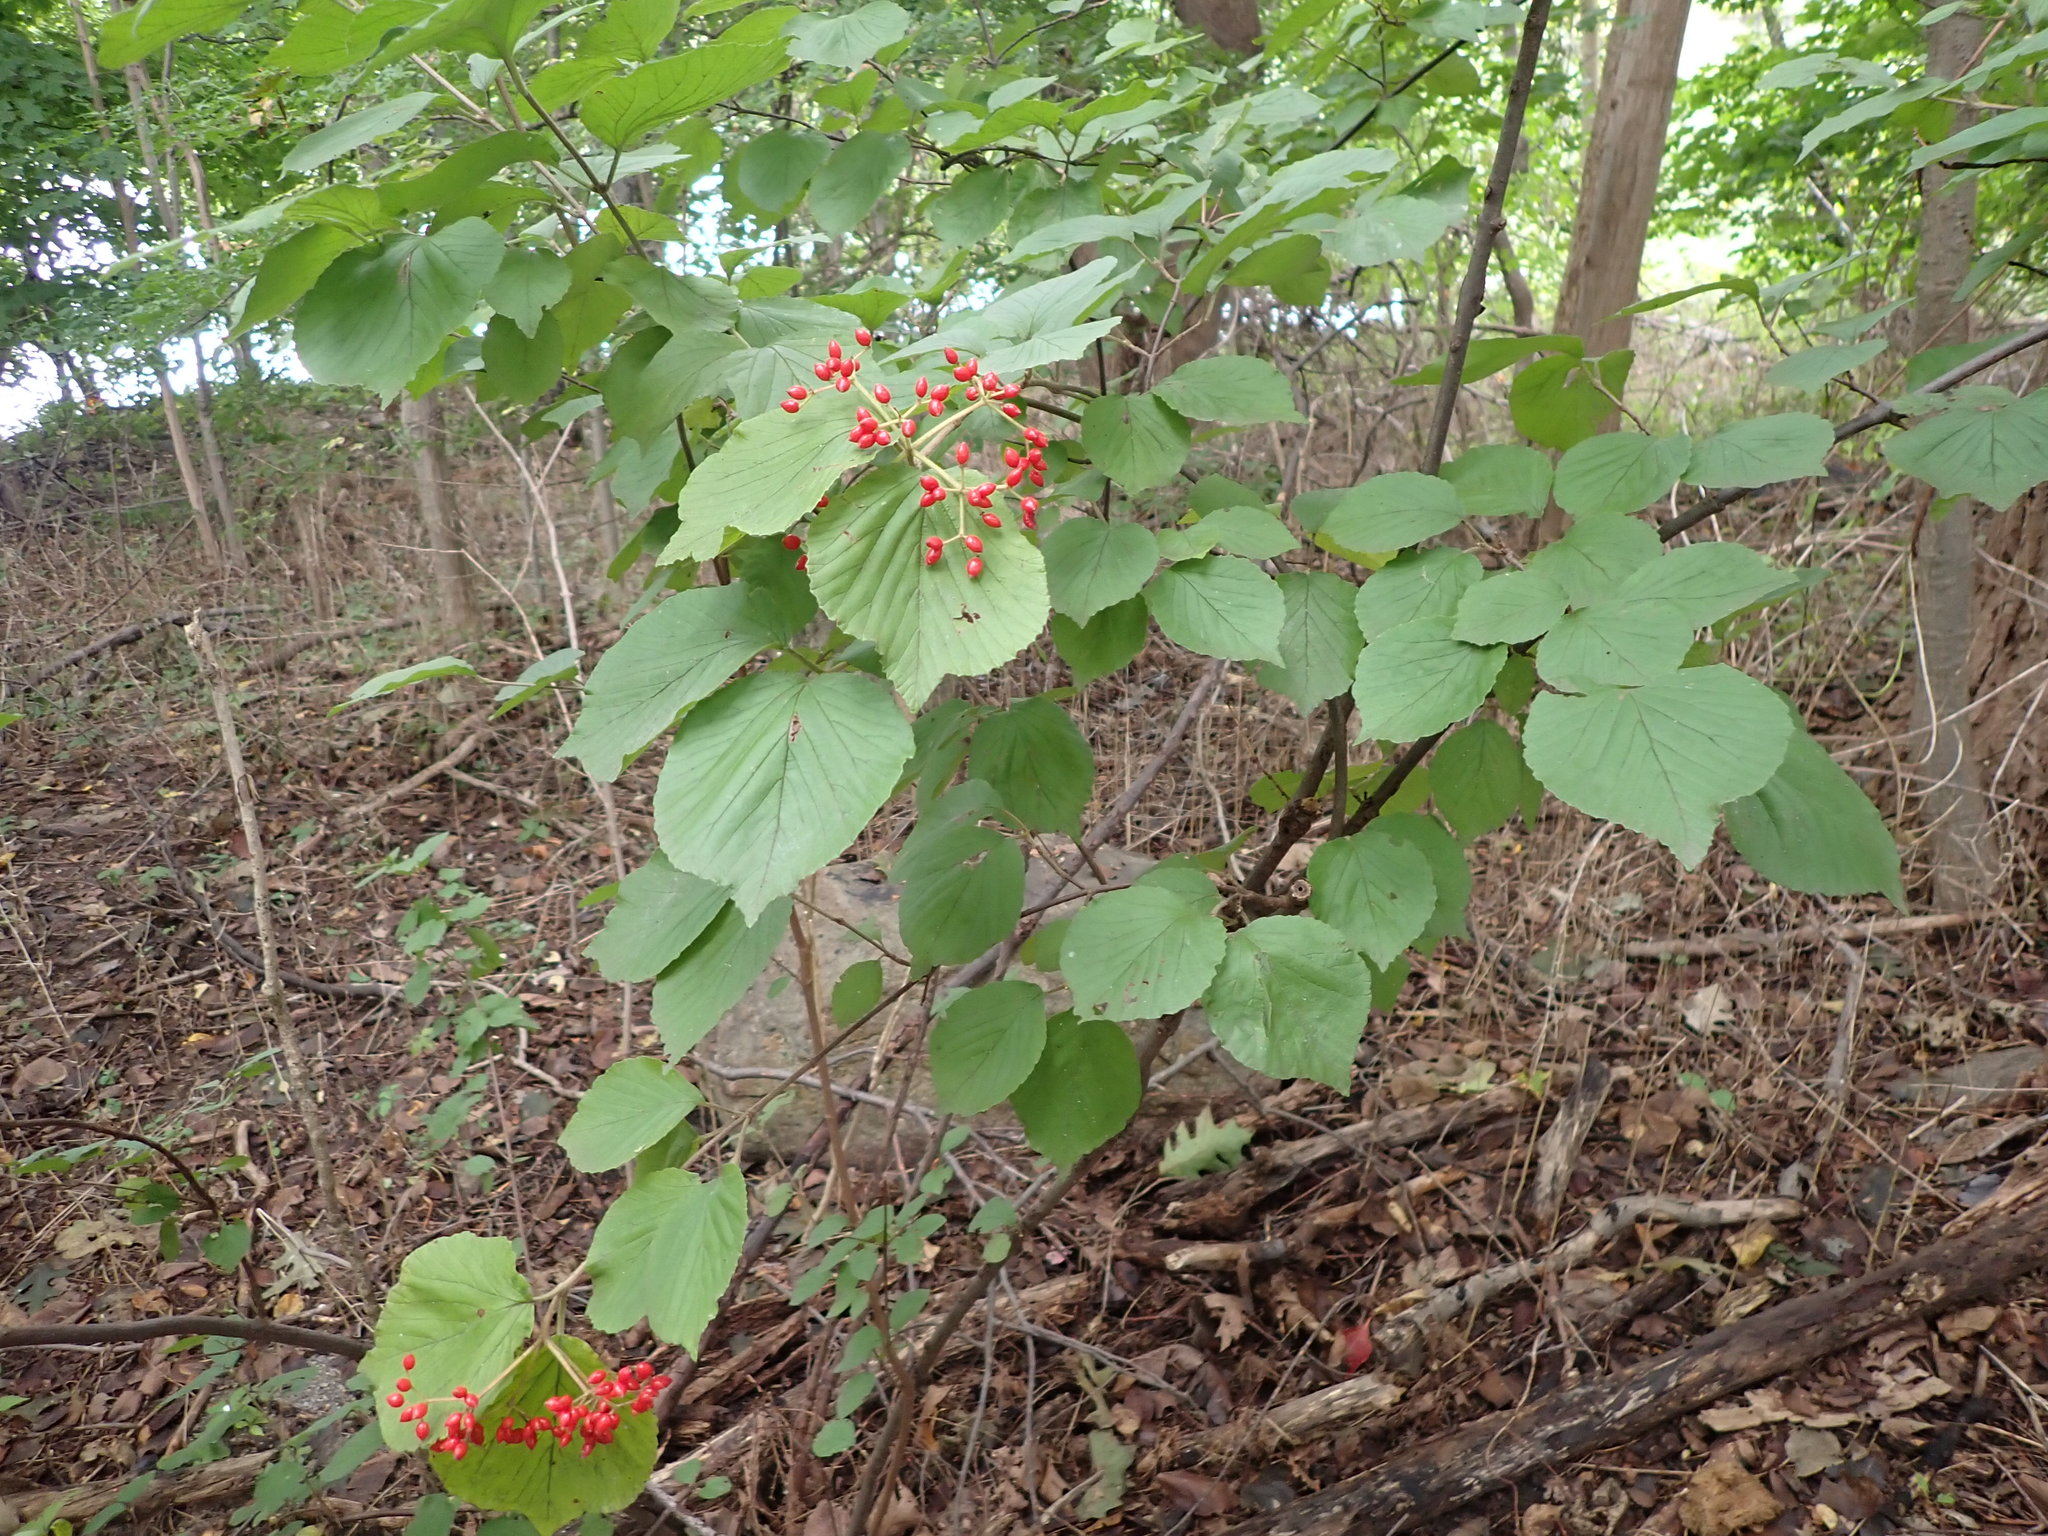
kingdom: Plantae
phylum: Tracheophyta
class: Magnoliopsida
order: Dipsacales
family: Viburnaceae
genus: Viburnum
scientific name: Viburnum dilatatum
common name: Linden arrowwood
